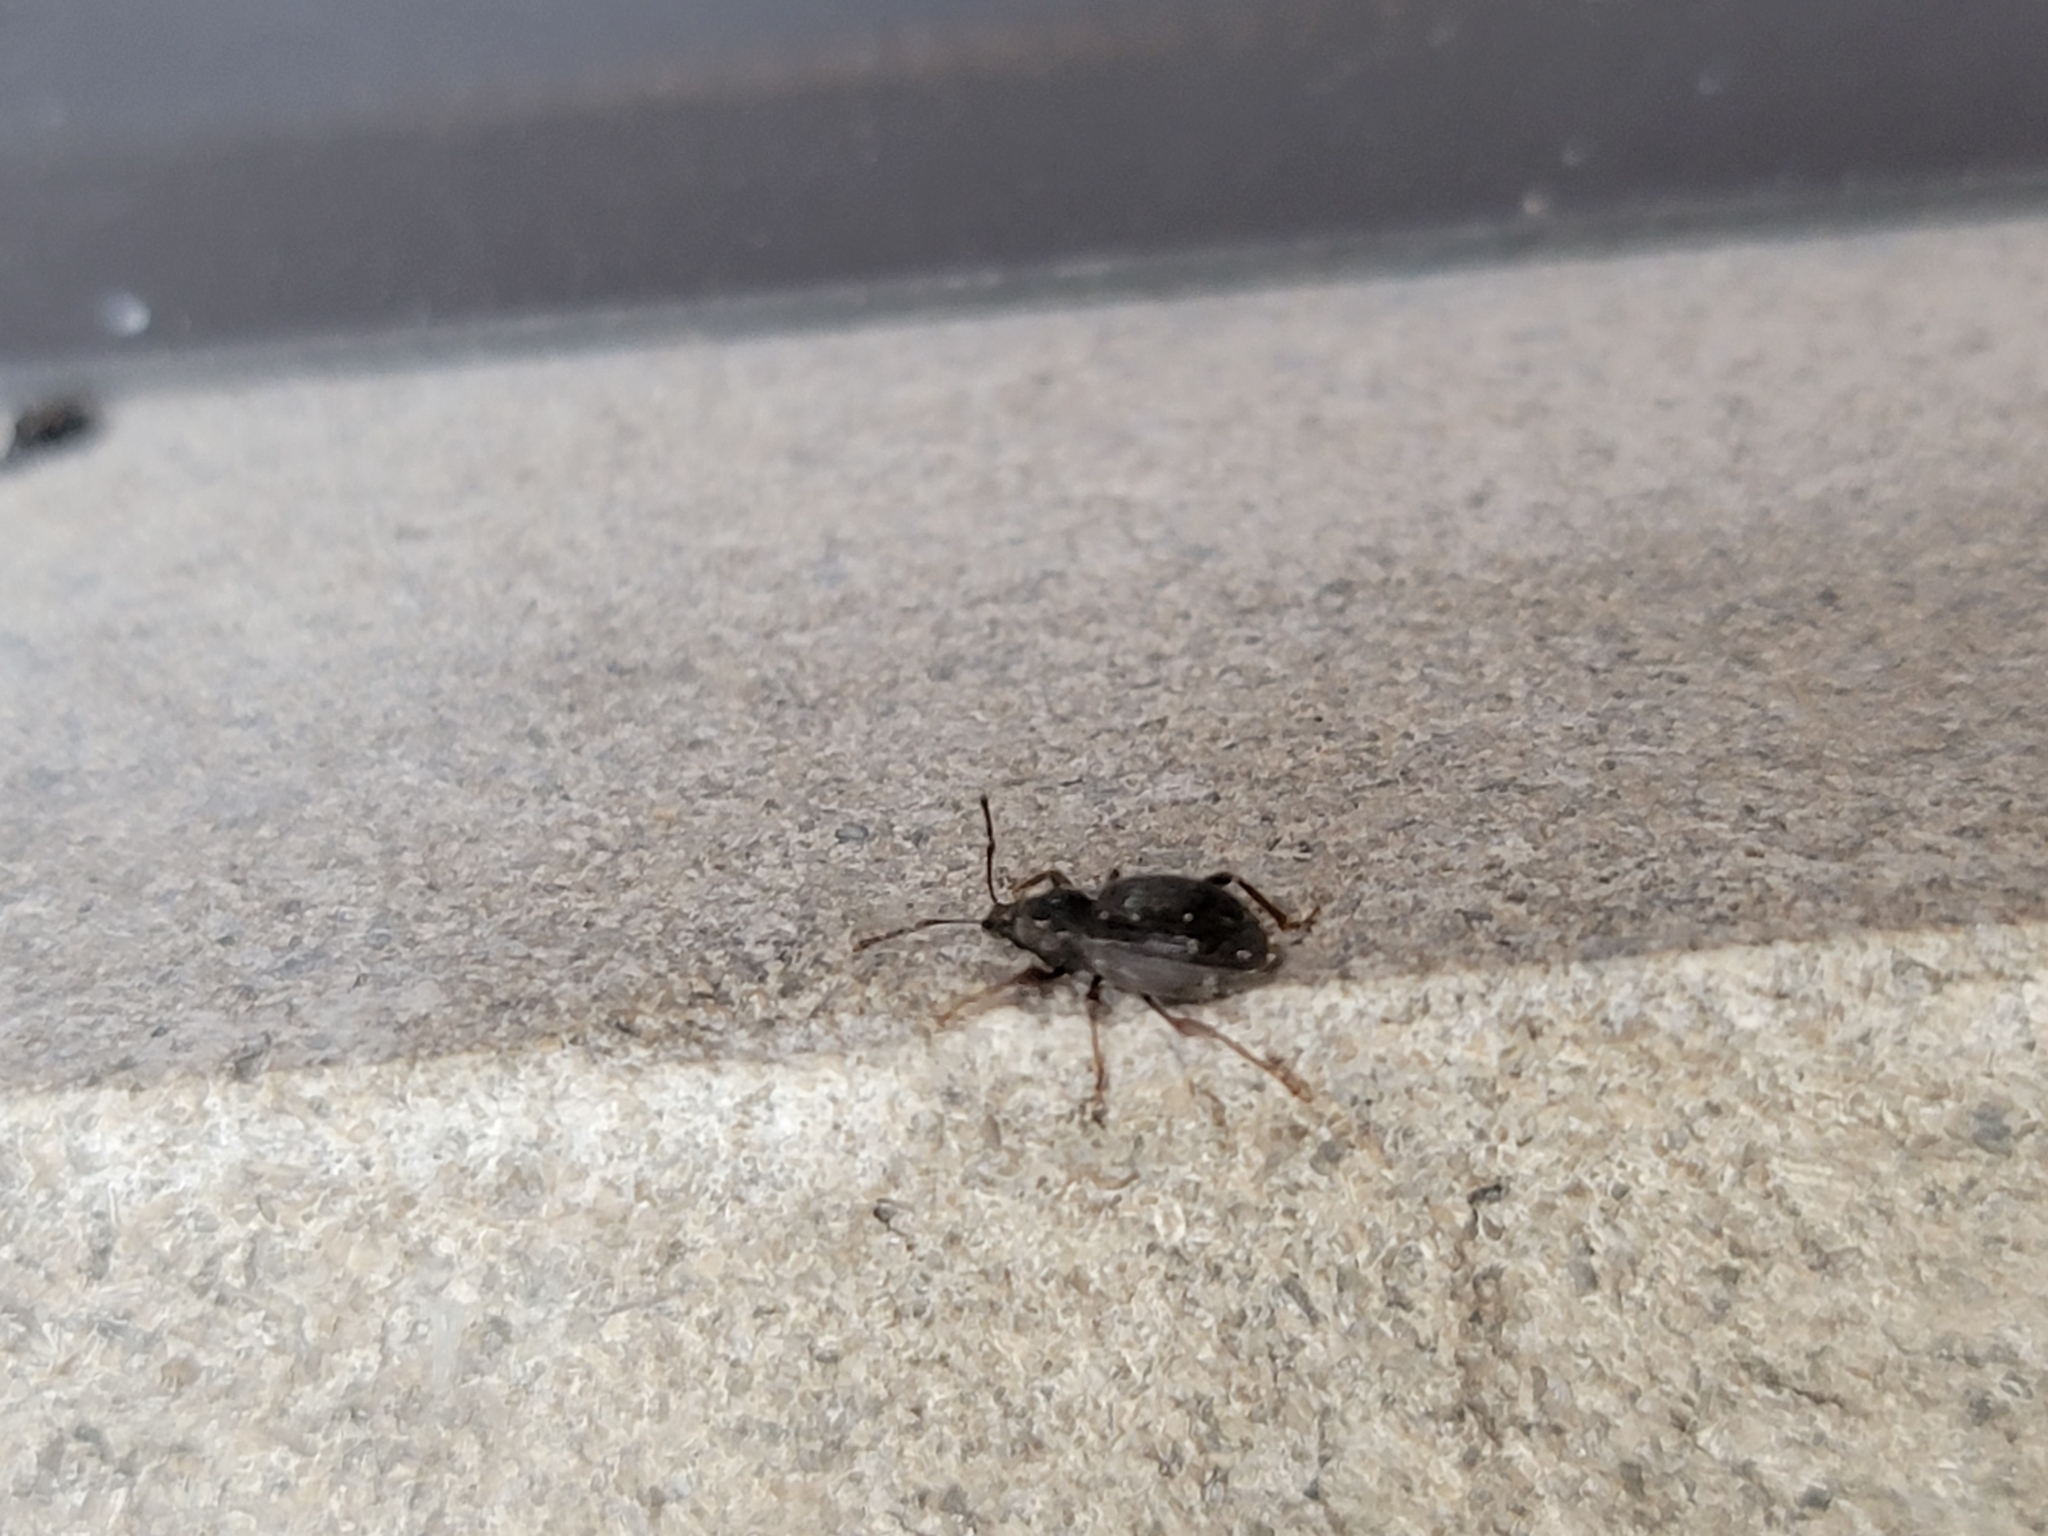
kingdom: Animalia
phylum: Arthropoda
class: Insecta
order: Coleoptera
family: Curculionidae
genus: Otiorhynchus
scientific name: Otiorhynchus ovatus
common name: Strawberry root weevil
